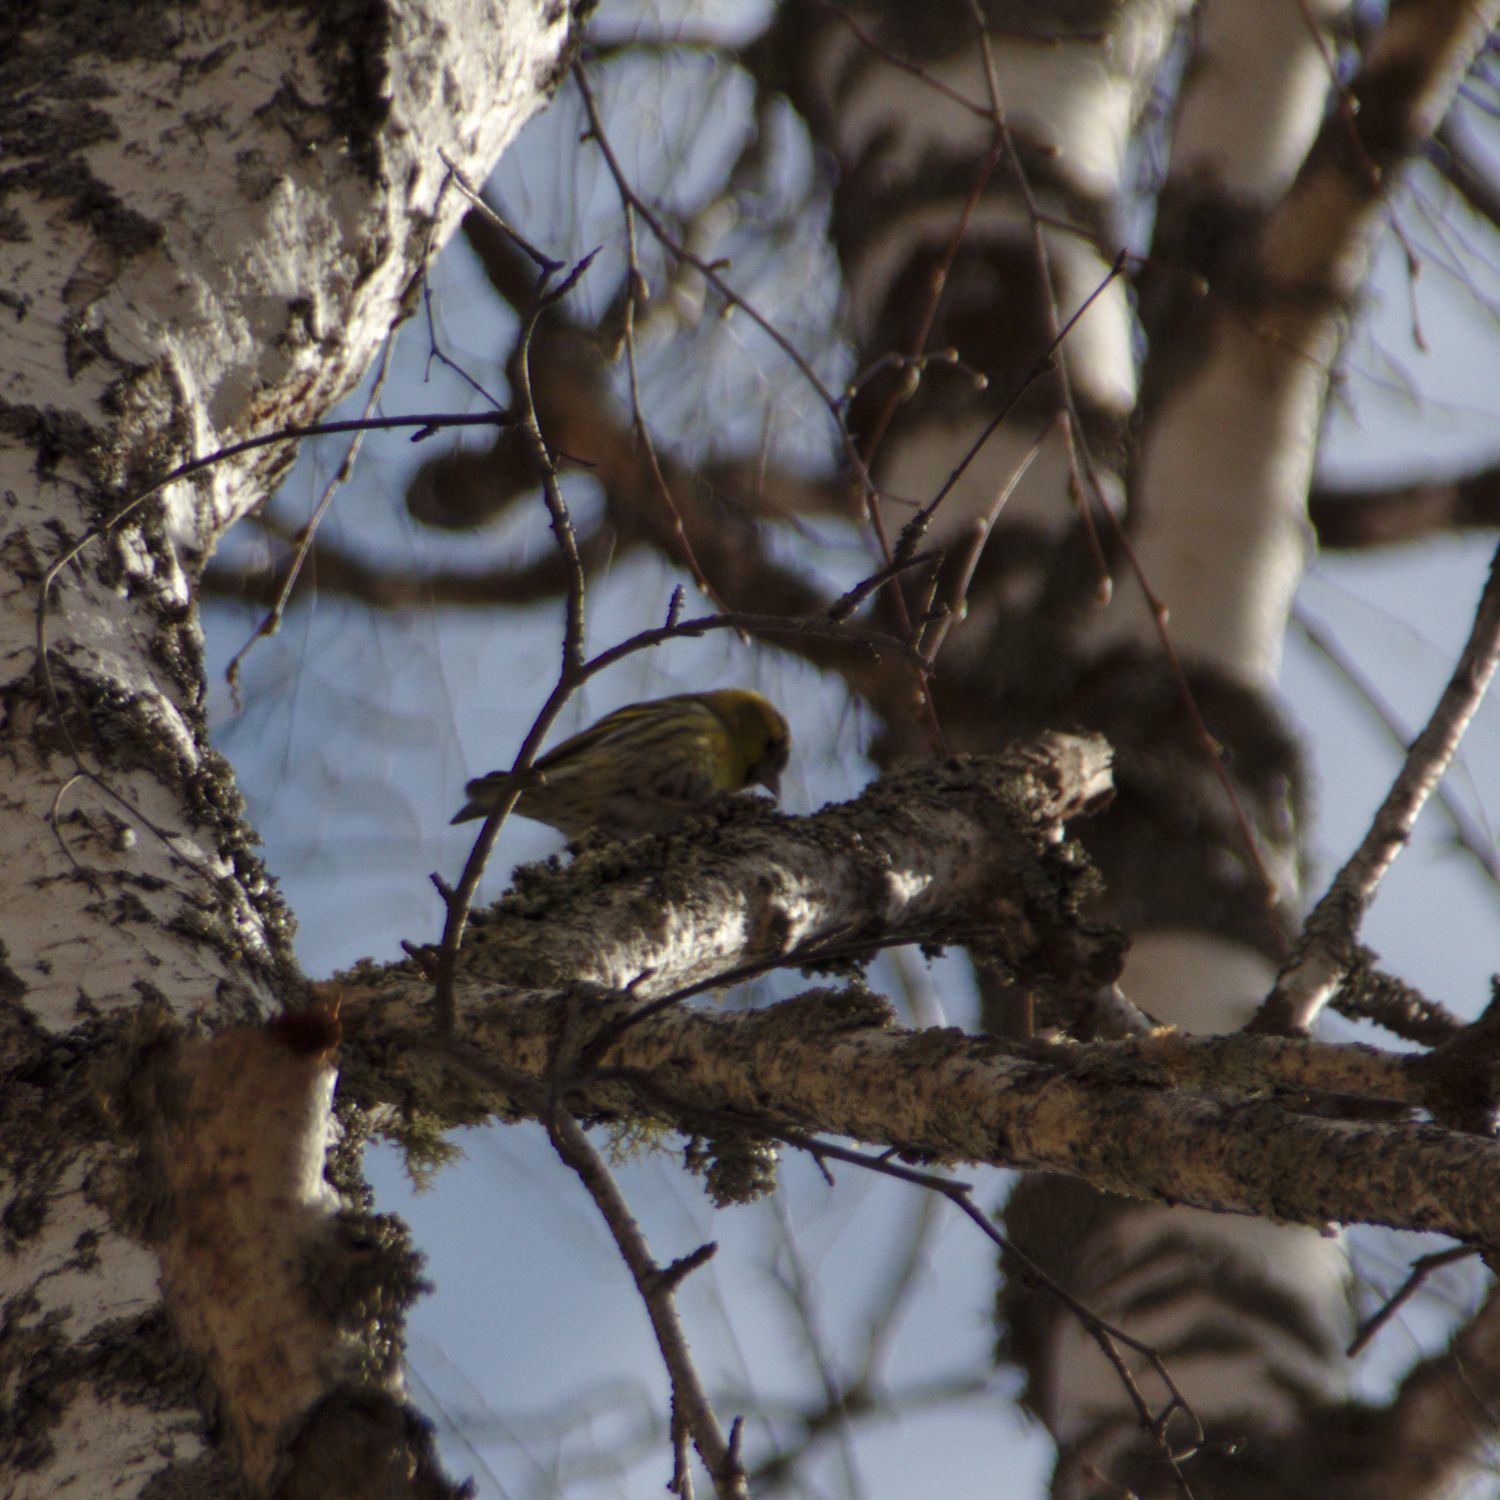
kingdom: Animalia
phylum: Chordata
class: Aves
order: Passeriformes
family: Fringillidae
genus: Spinus
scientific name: Spinus spinus
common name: Eurasian siskin
